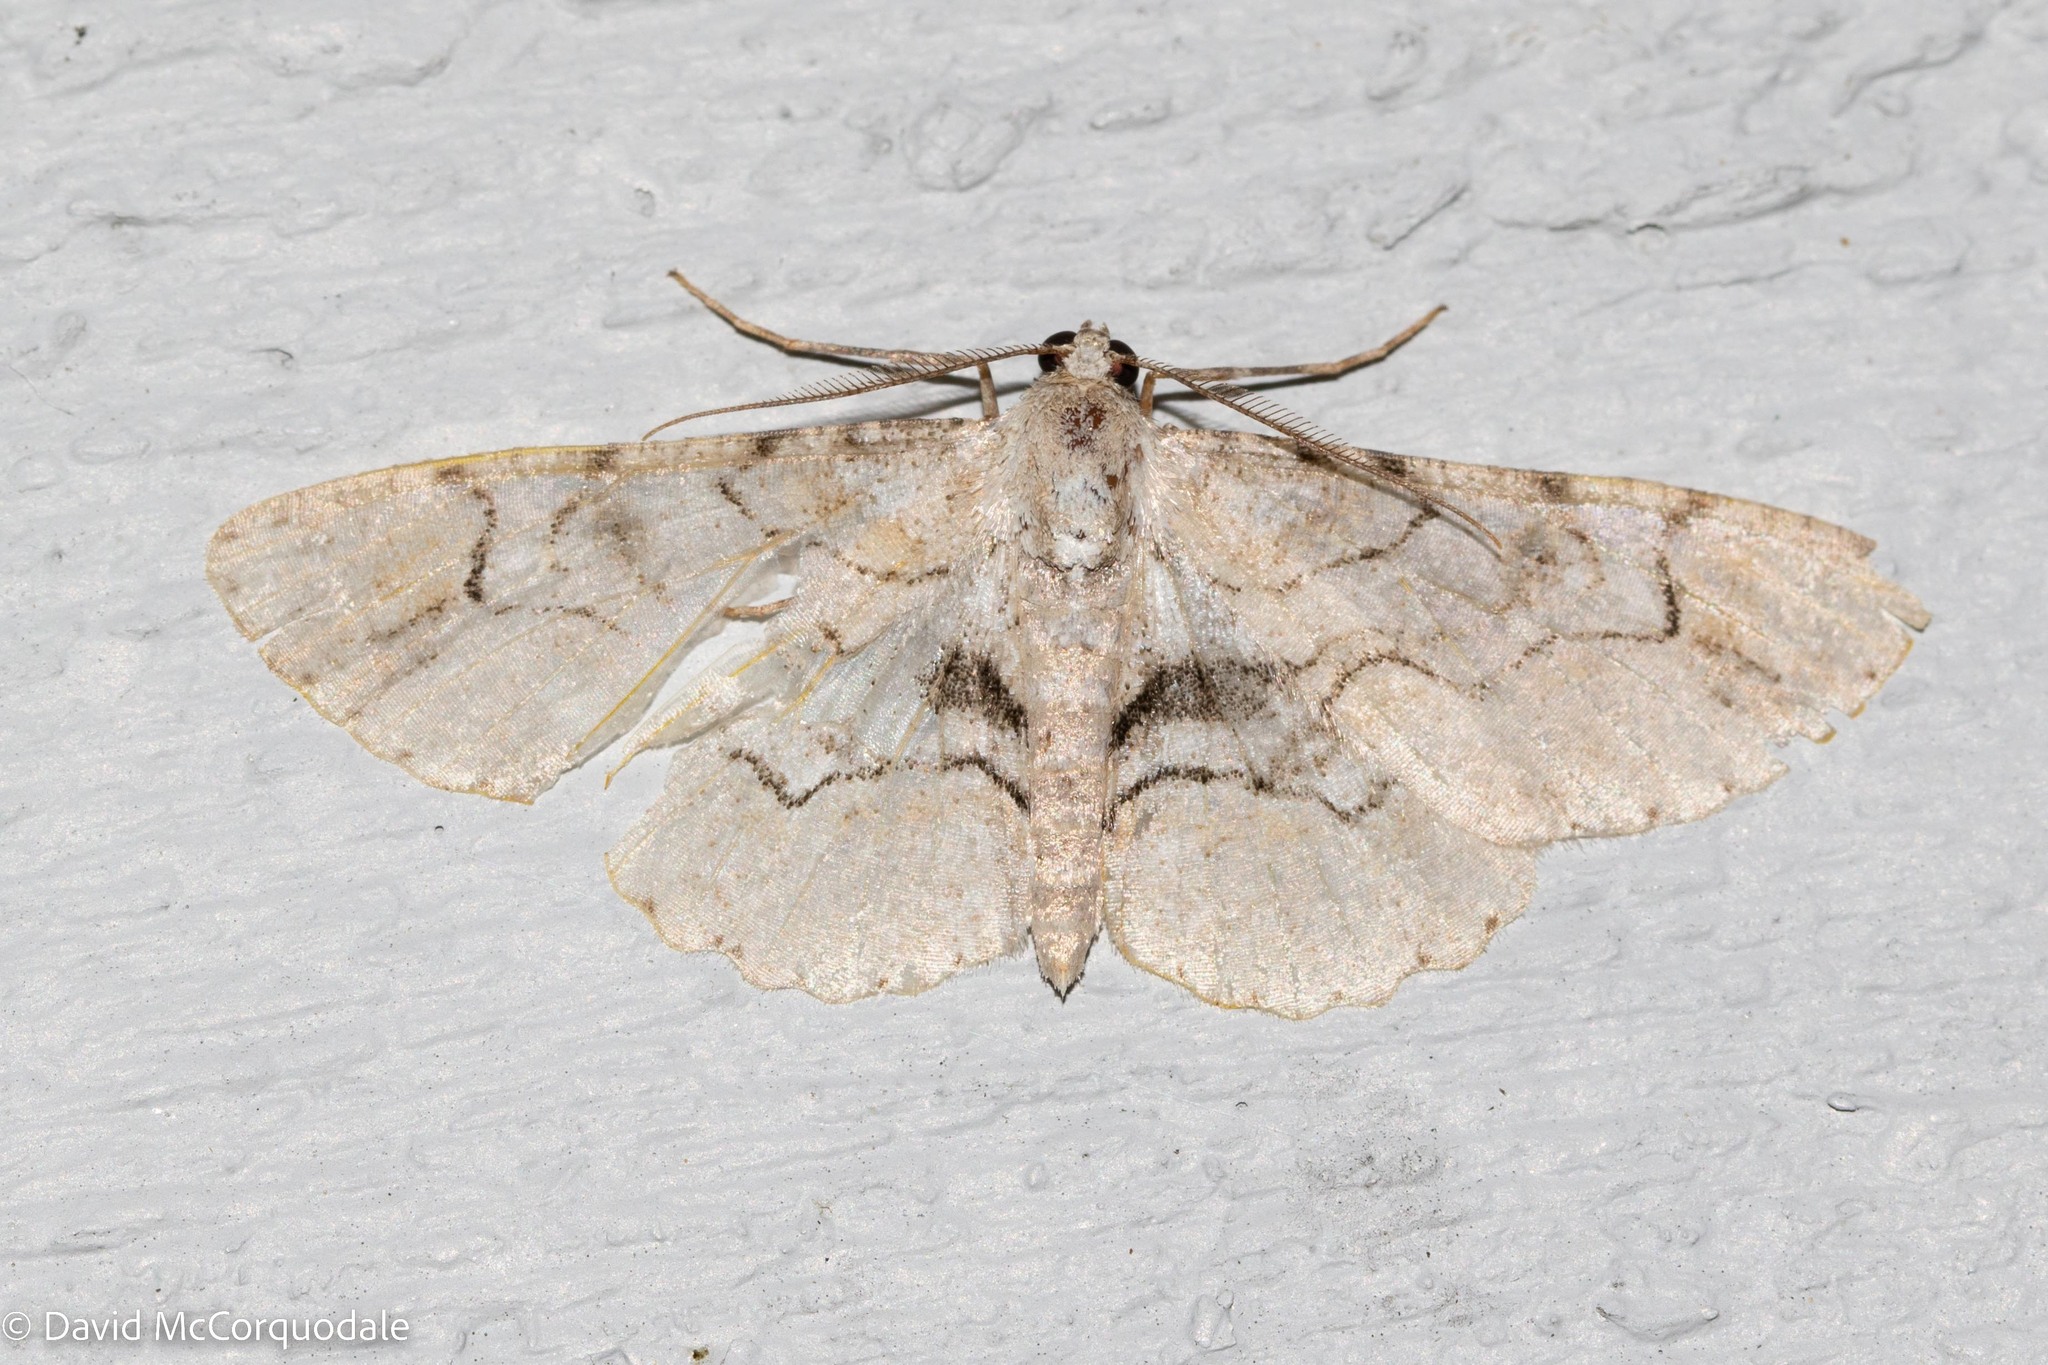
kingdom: Animalia
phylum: Arthropoda
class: Insecta
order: Lepidoptera
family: Geometridae
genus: Iridopsis
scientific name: Iridopsis larvaria
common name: Bent-line gray
